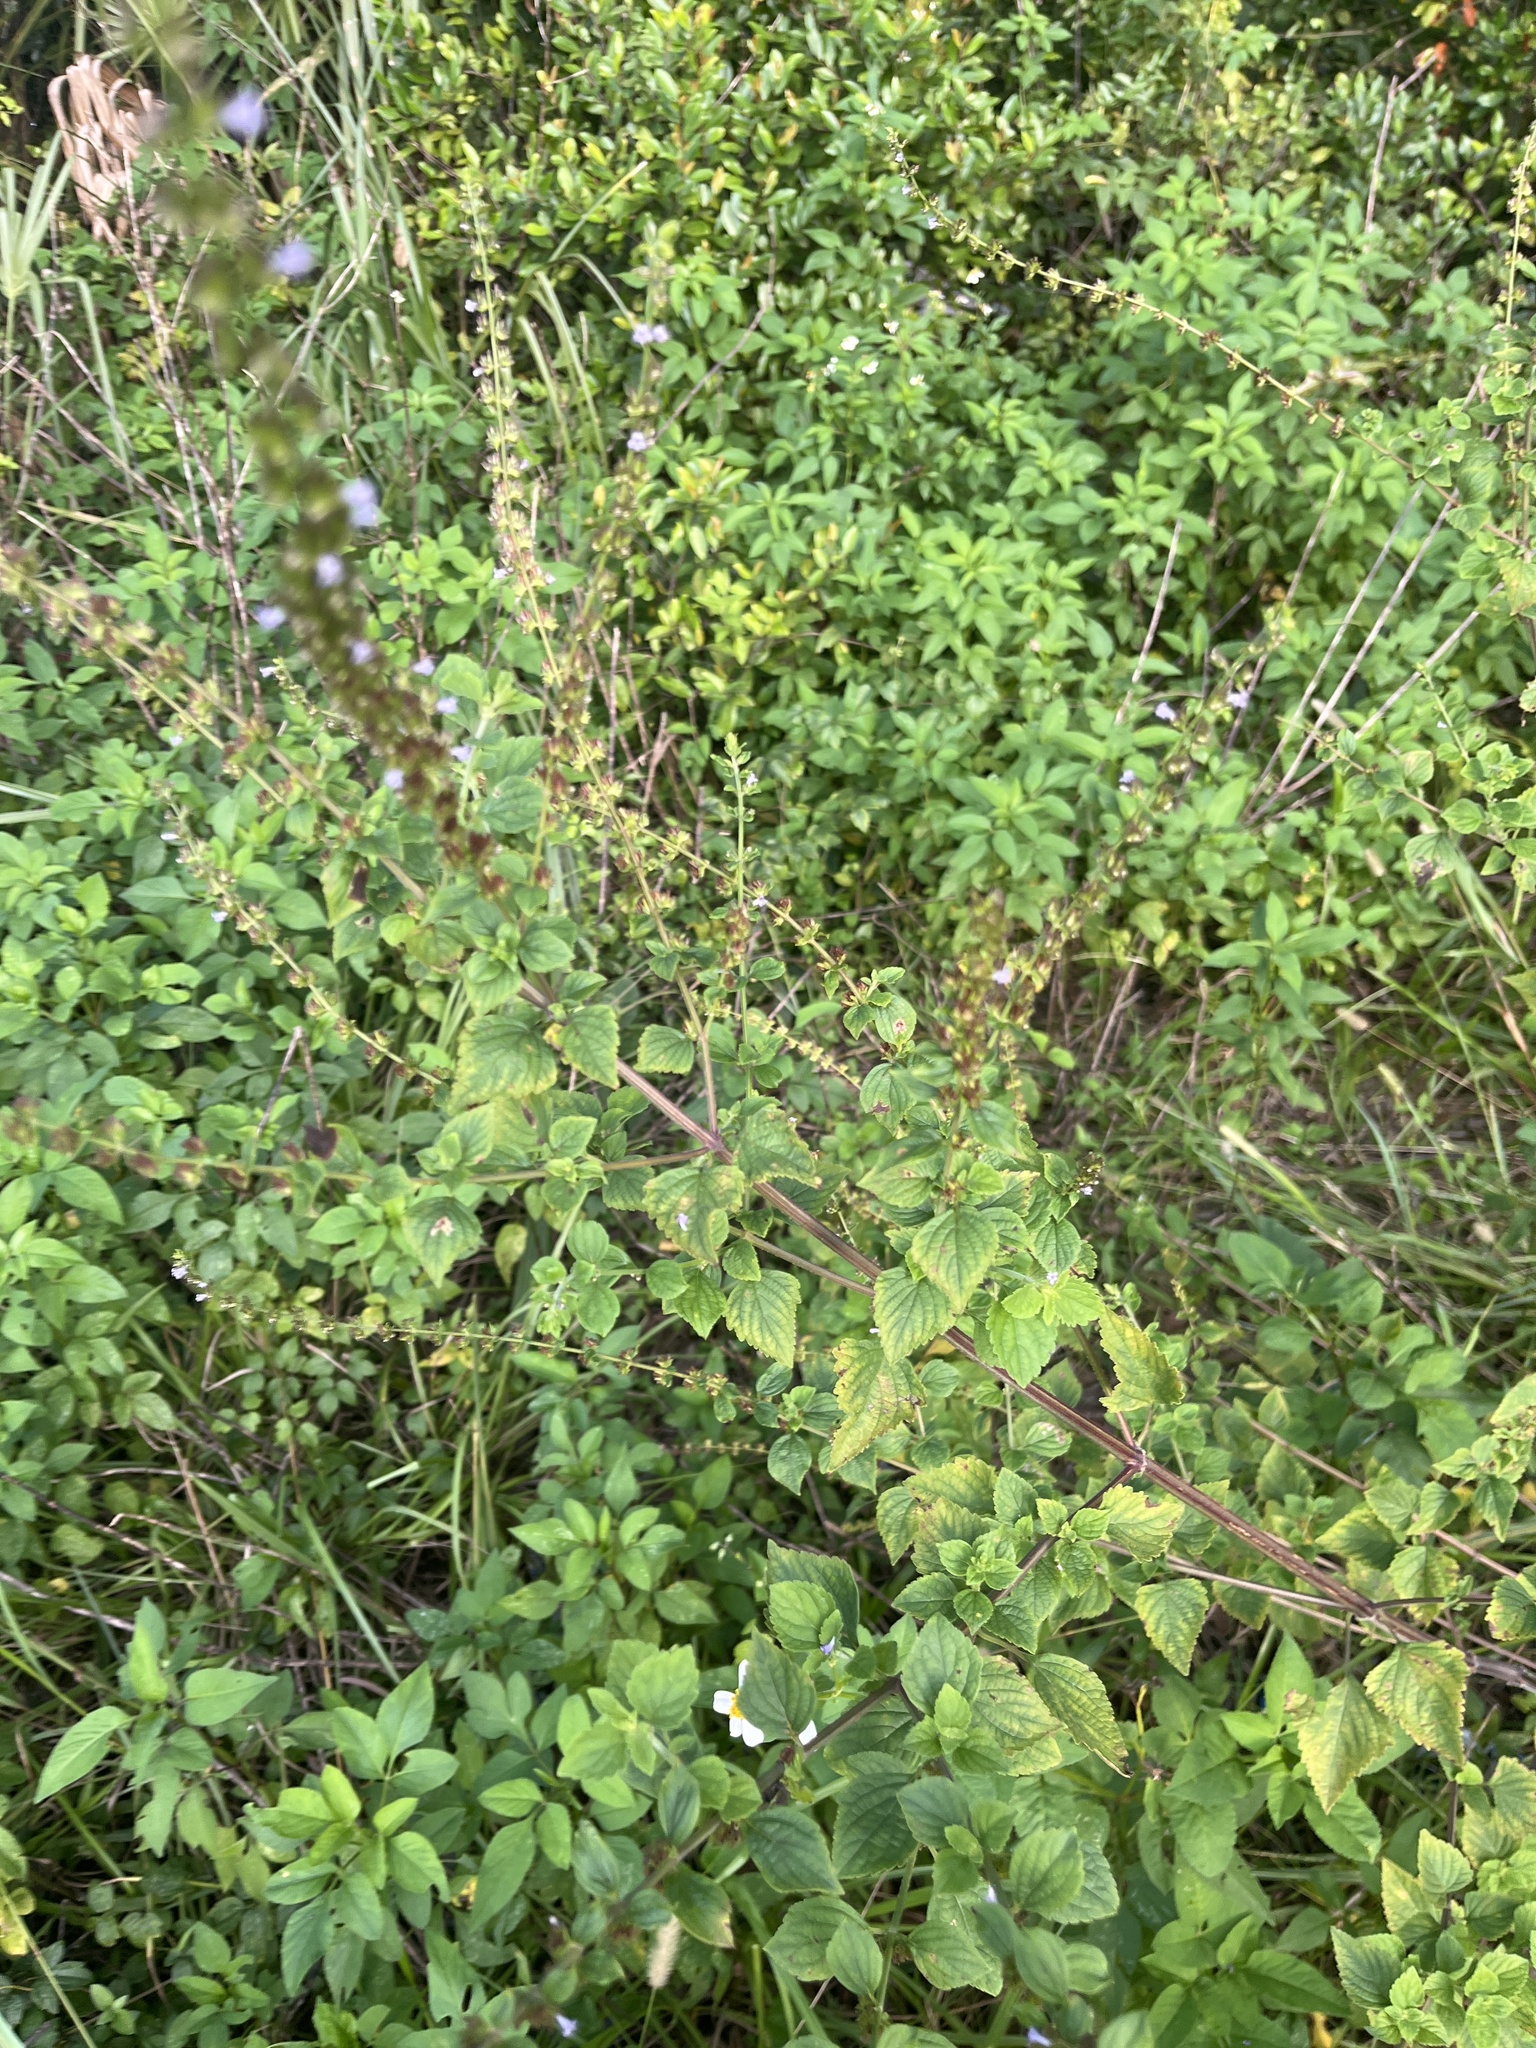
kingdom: Plantae
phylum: Tracheophyta
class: Magnoliopsida
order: Lamiales
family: Lamiaceae
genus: Cantinoa
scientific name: Cantinoa mutabilis
